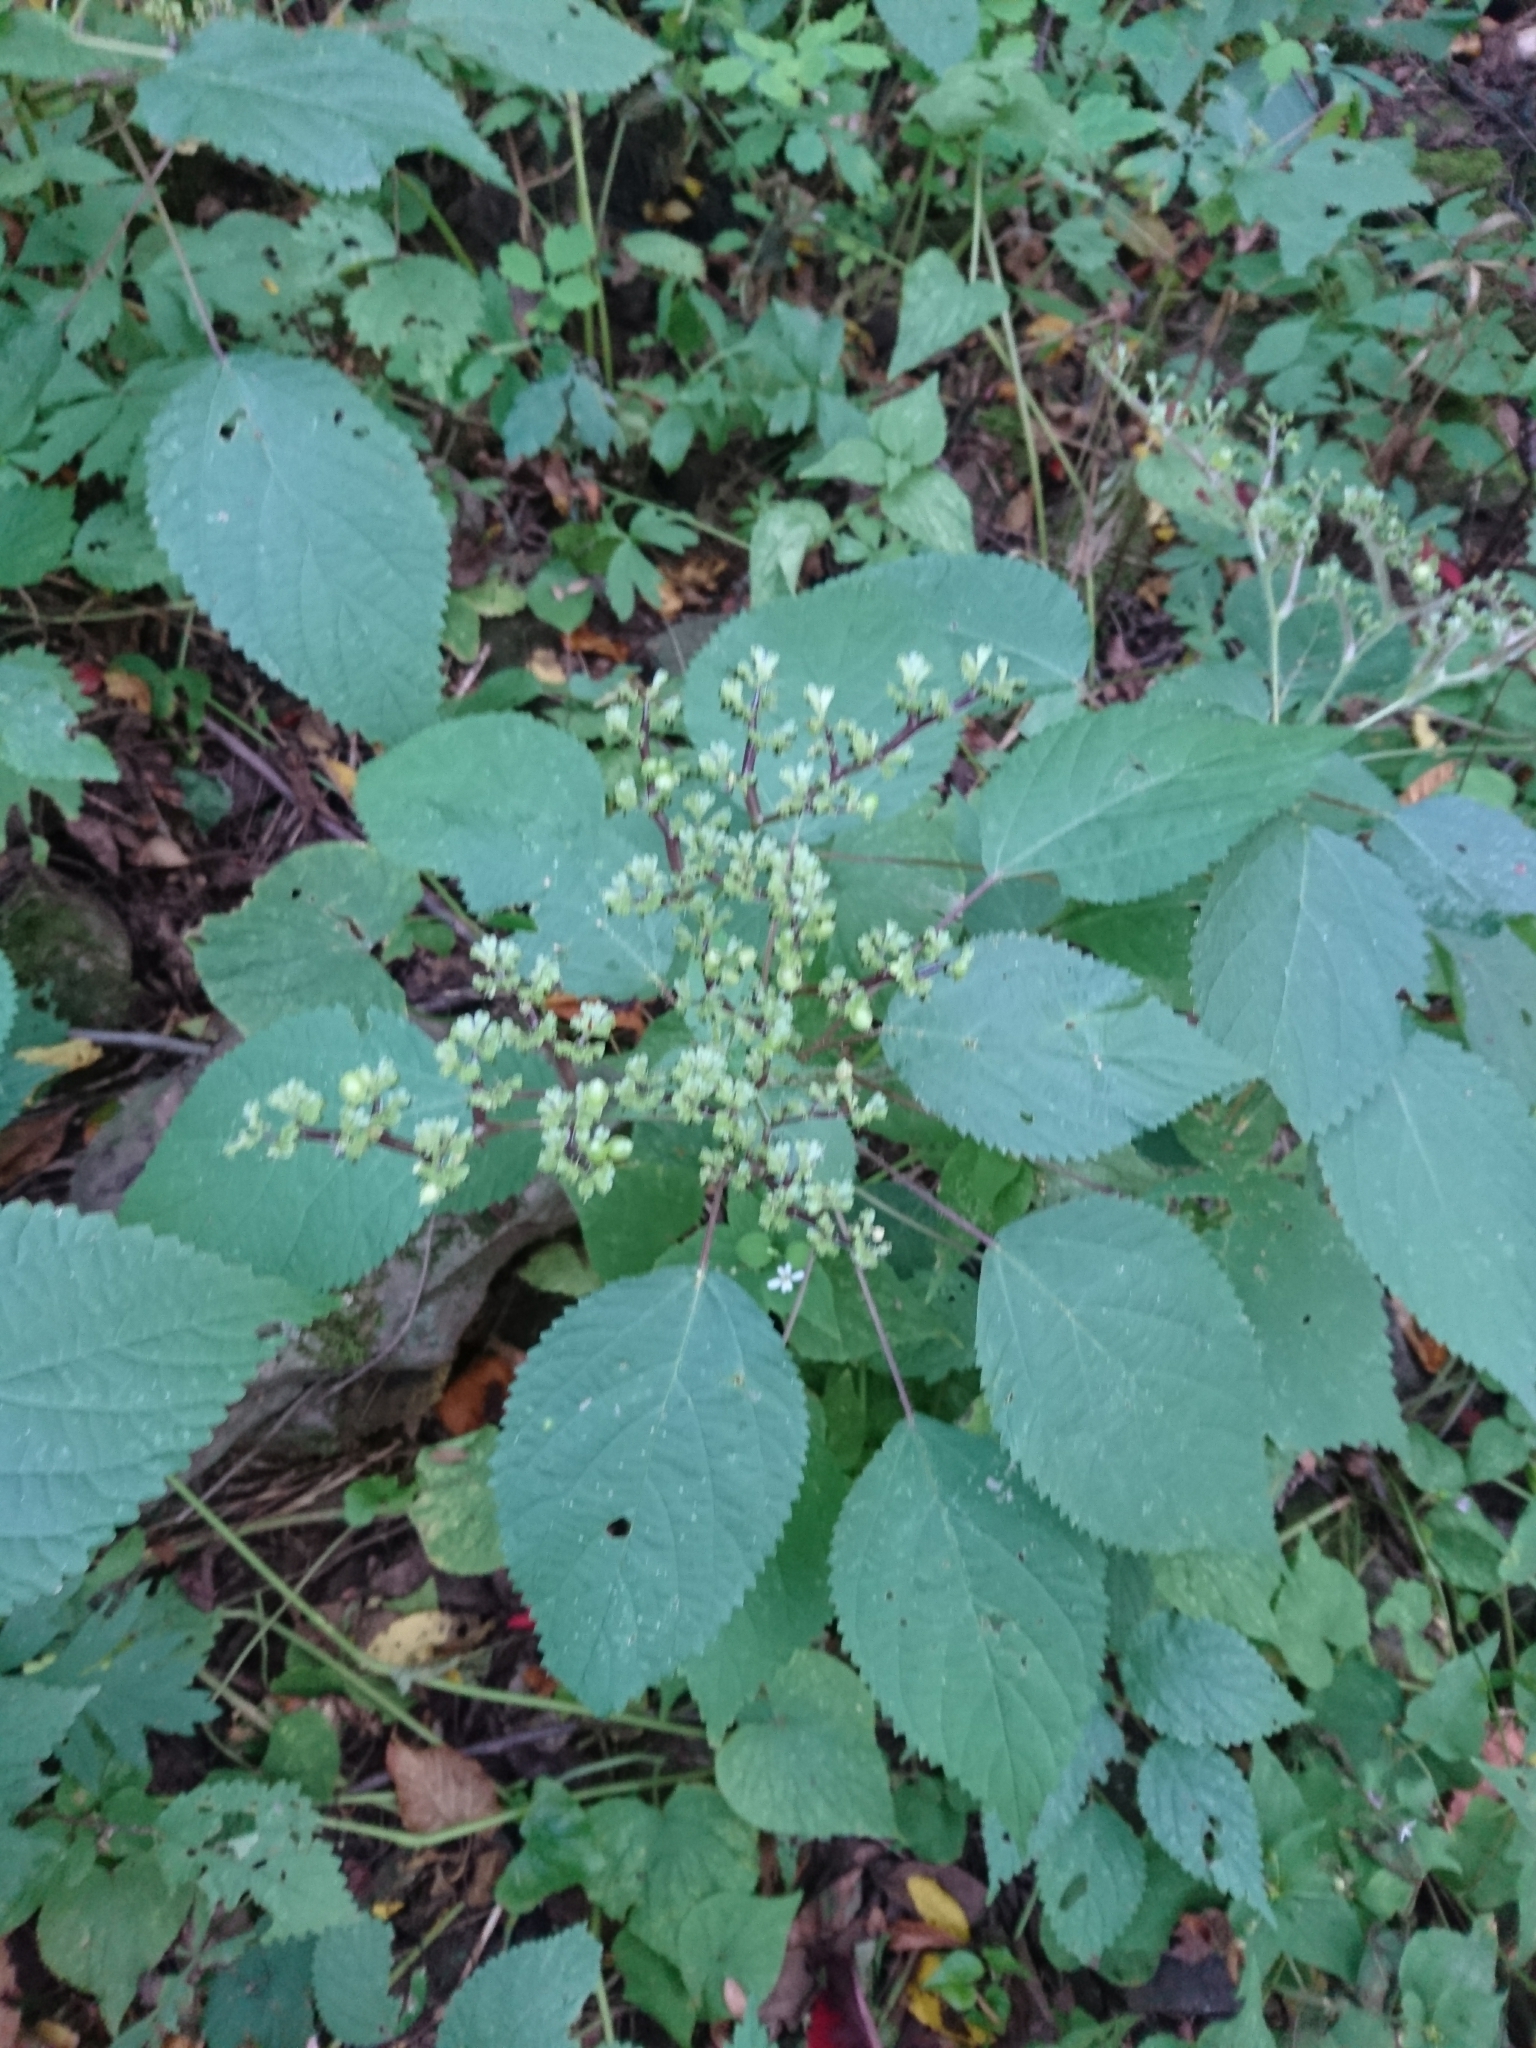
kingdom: Plantae
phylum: Tracheophyta
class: Magnoliopsida
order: Rosales
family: Urticaceae
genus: Laportea
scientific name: Laportea canadensis
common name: Canada nettle
